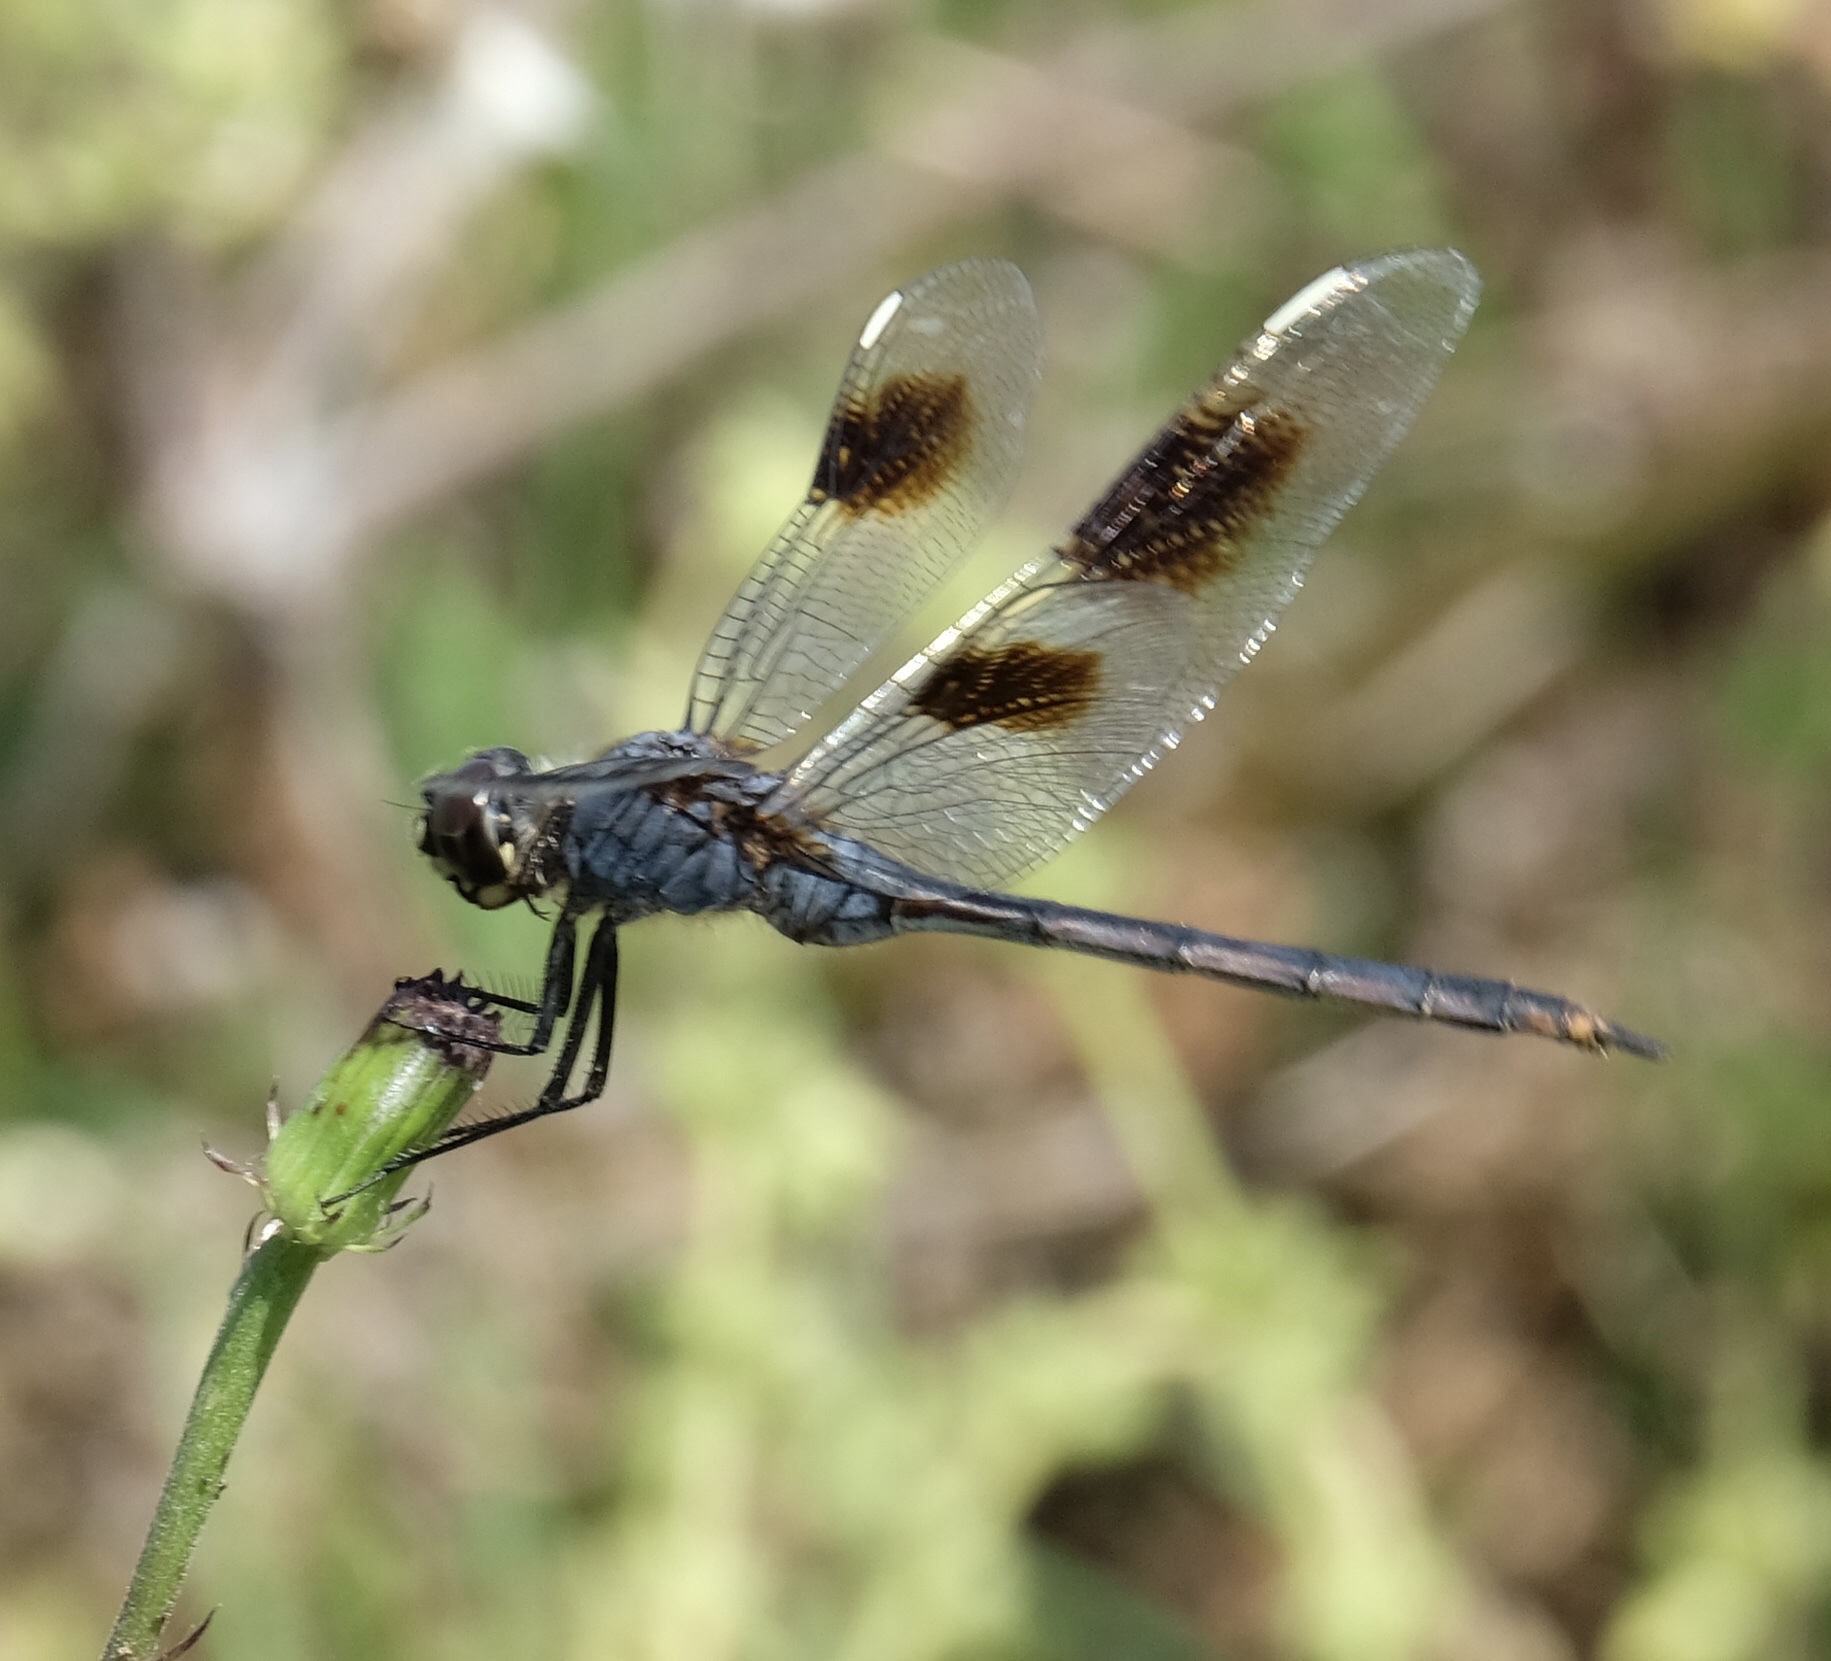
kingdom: Animalia
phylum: Arthropoda
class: Insecta
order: Odonata
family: Libellulidae
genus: Brachymesia
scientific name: Brachymesia gravida
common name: Four-spotted pennant
